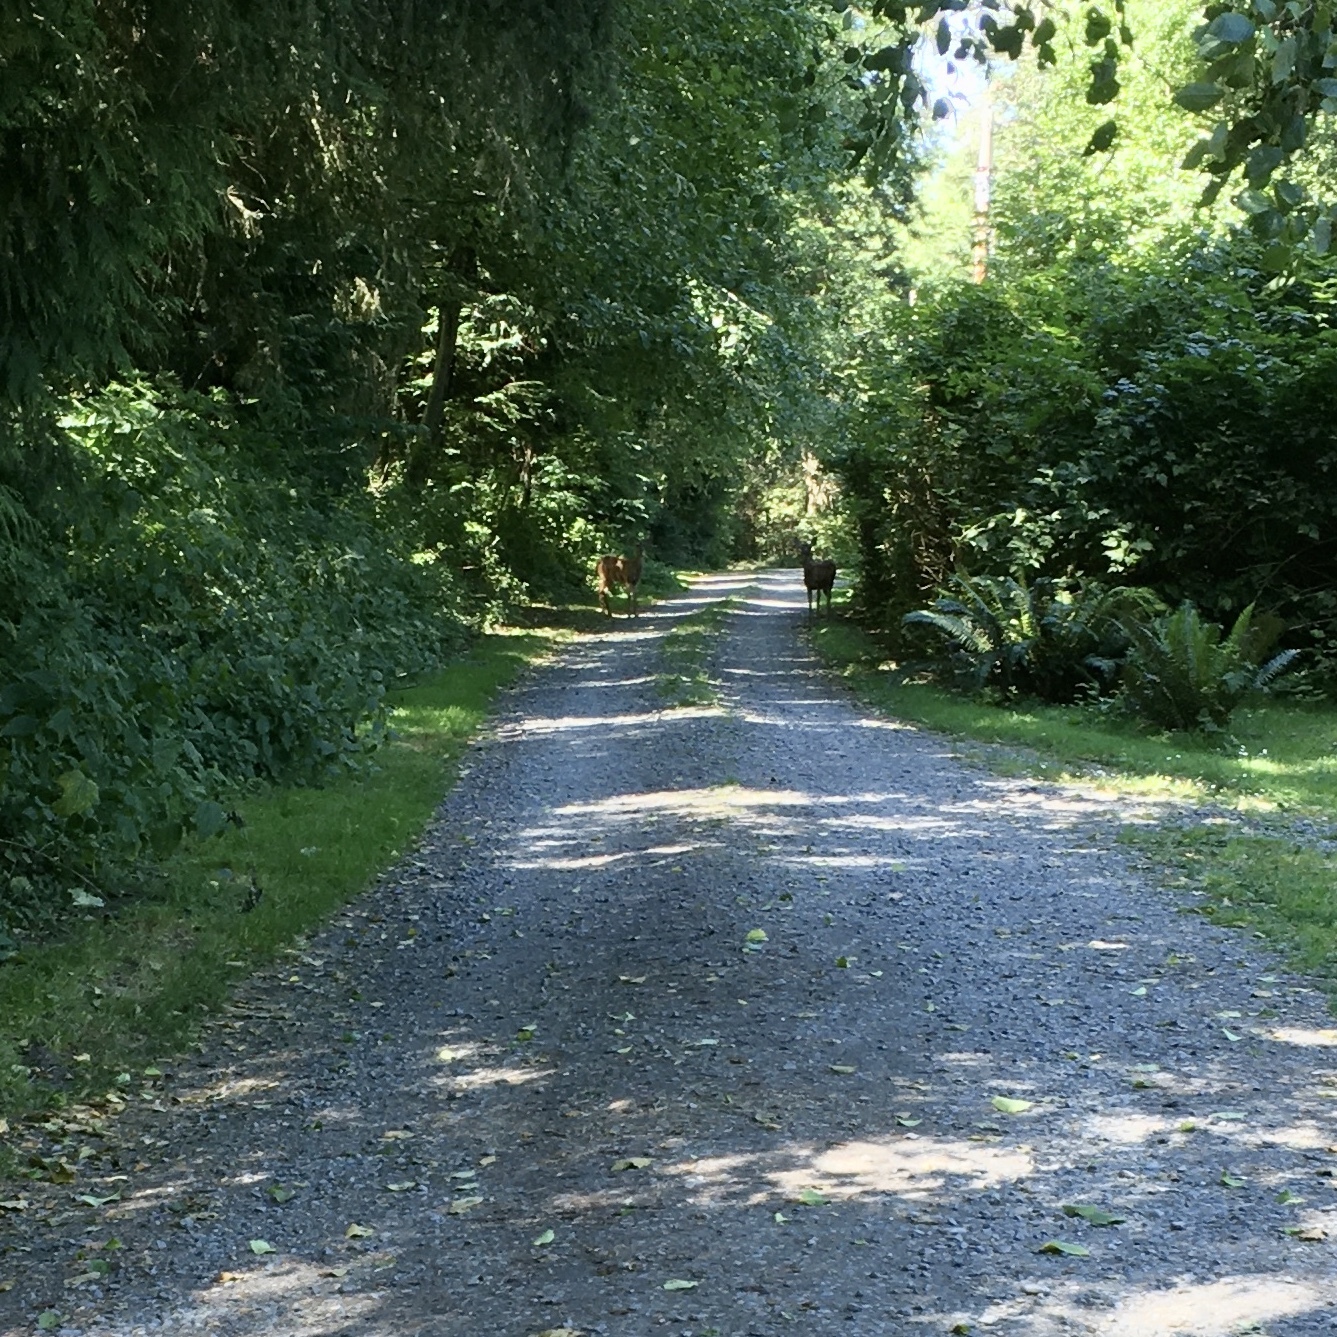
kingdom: Animalia
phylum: Chordata
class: Mammalia
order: Artiodactyla
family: Cervidae
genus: Odocoileus
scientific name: Odocoileus hemionus
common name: Mule deer
